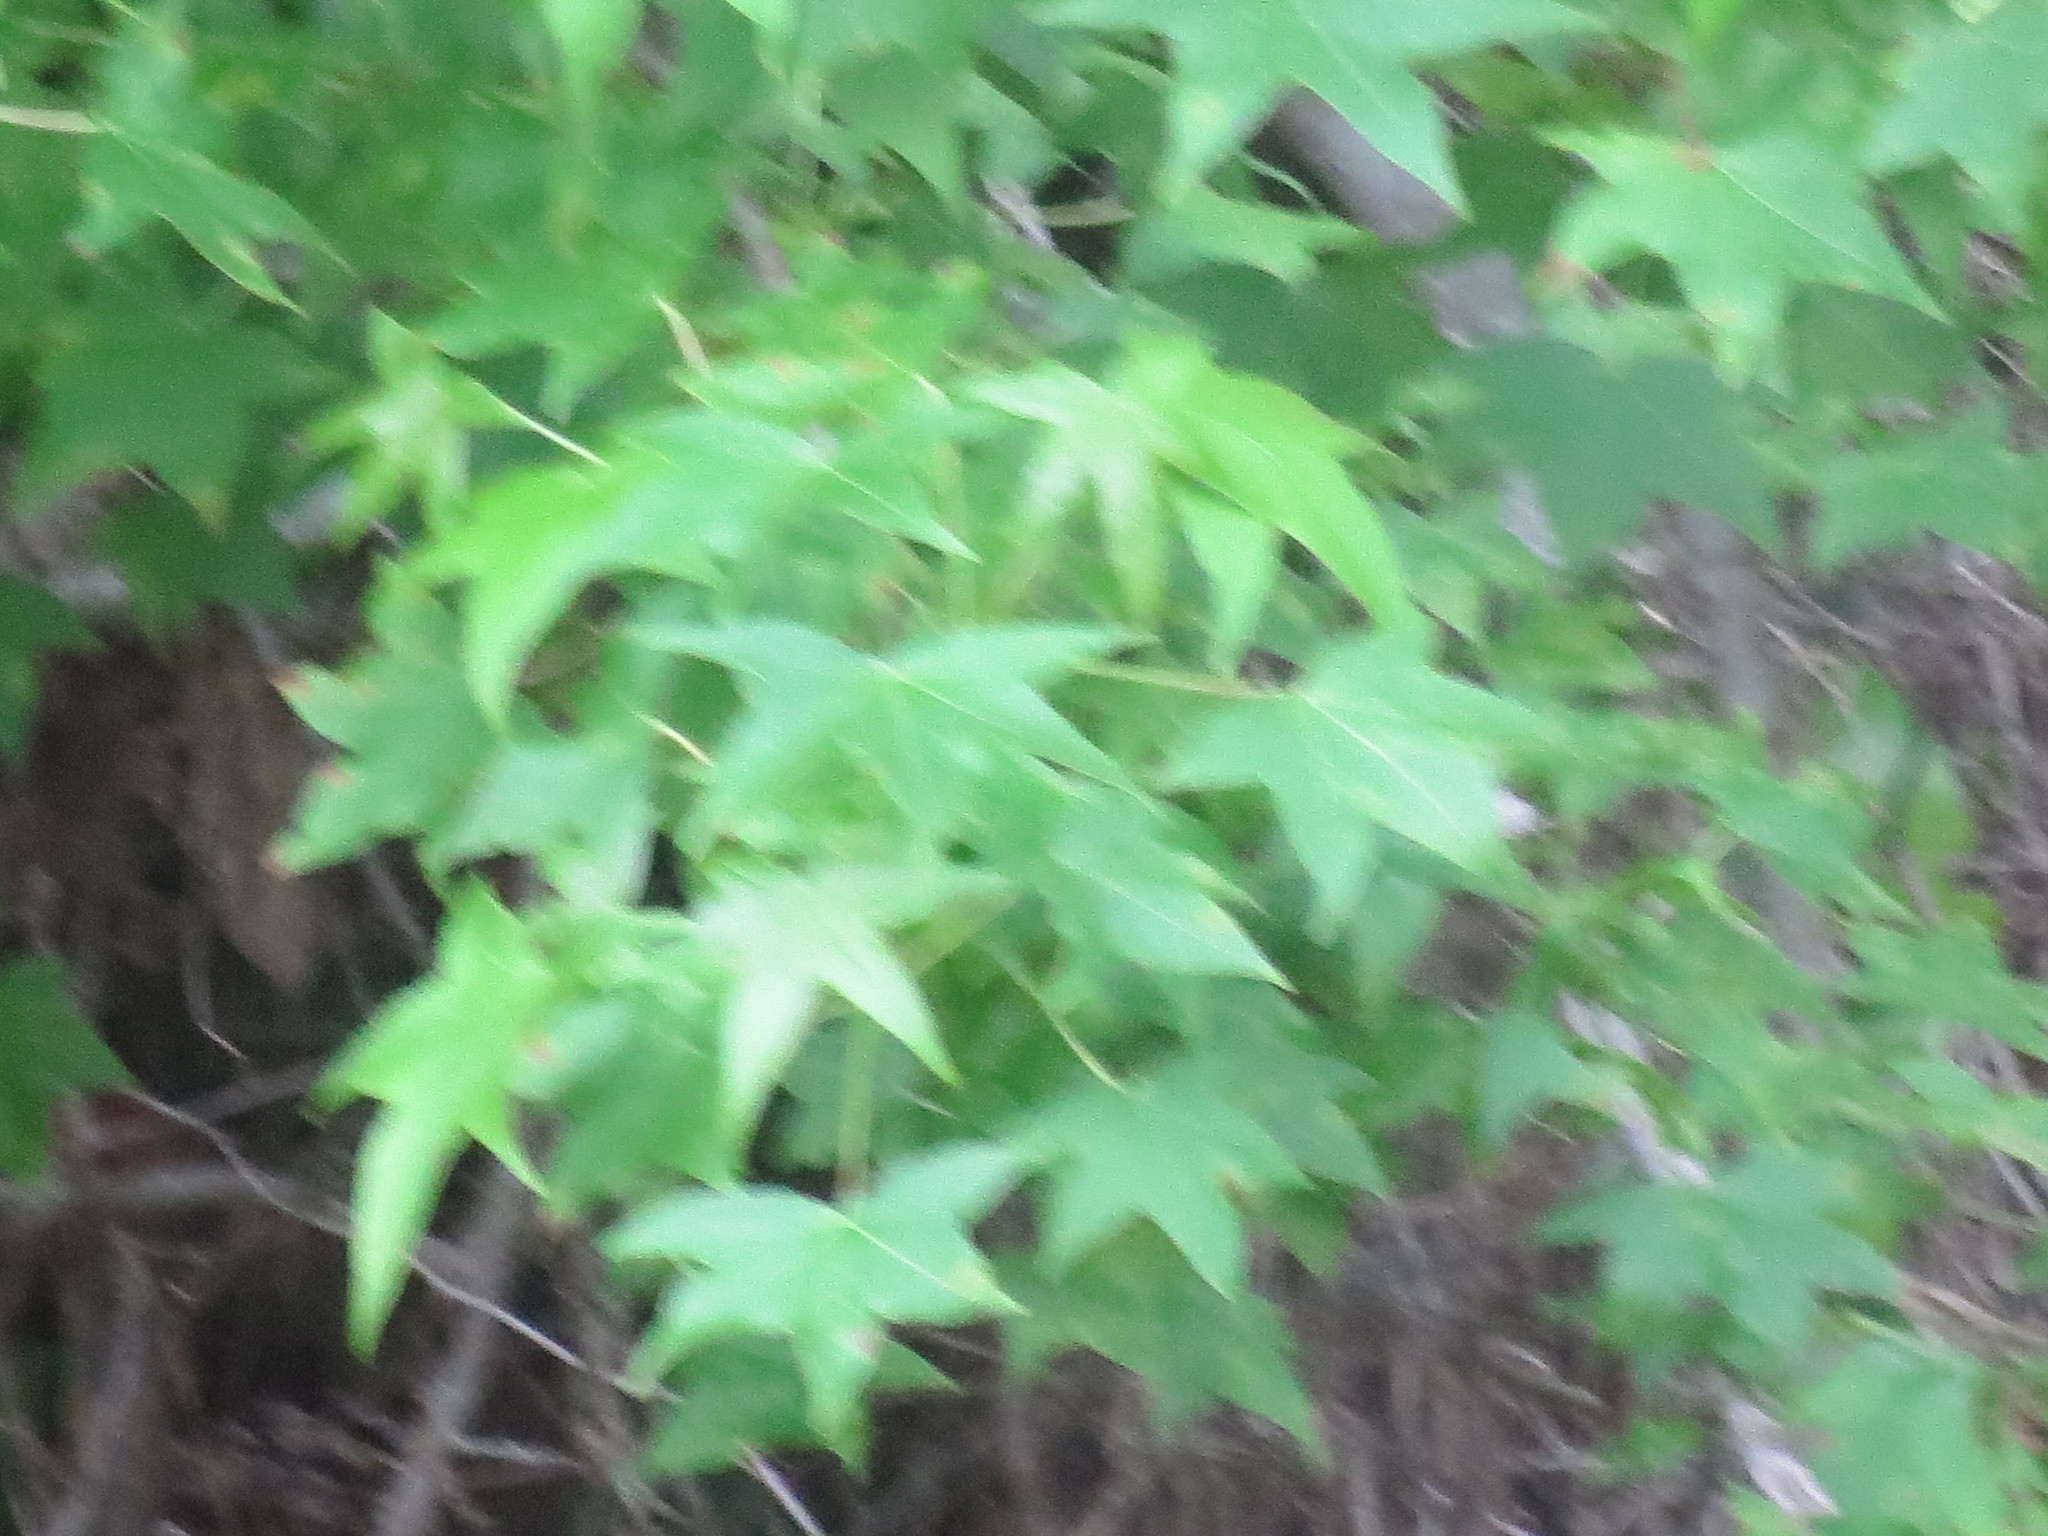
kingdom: Plantae
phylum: Tracheophyta
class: Magnoliopsida
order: Saxifragales
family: Altingiaceae
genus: Liquidambar
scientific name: Liquidambar styraciflua
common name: Sweet gum
